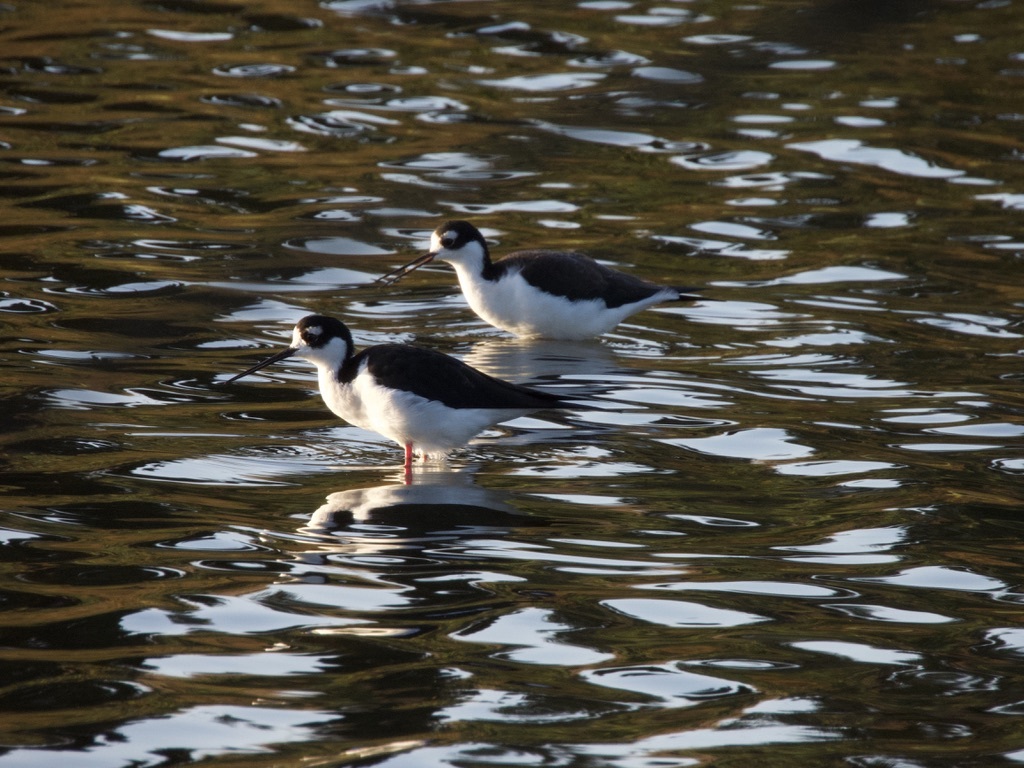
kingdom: Animalia
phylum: Chordata
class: Aves
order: Charadriiformes
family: Recurvirostridae
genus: Himantopus
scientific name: Himantopus mexicanus
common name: Black-necked stilt
